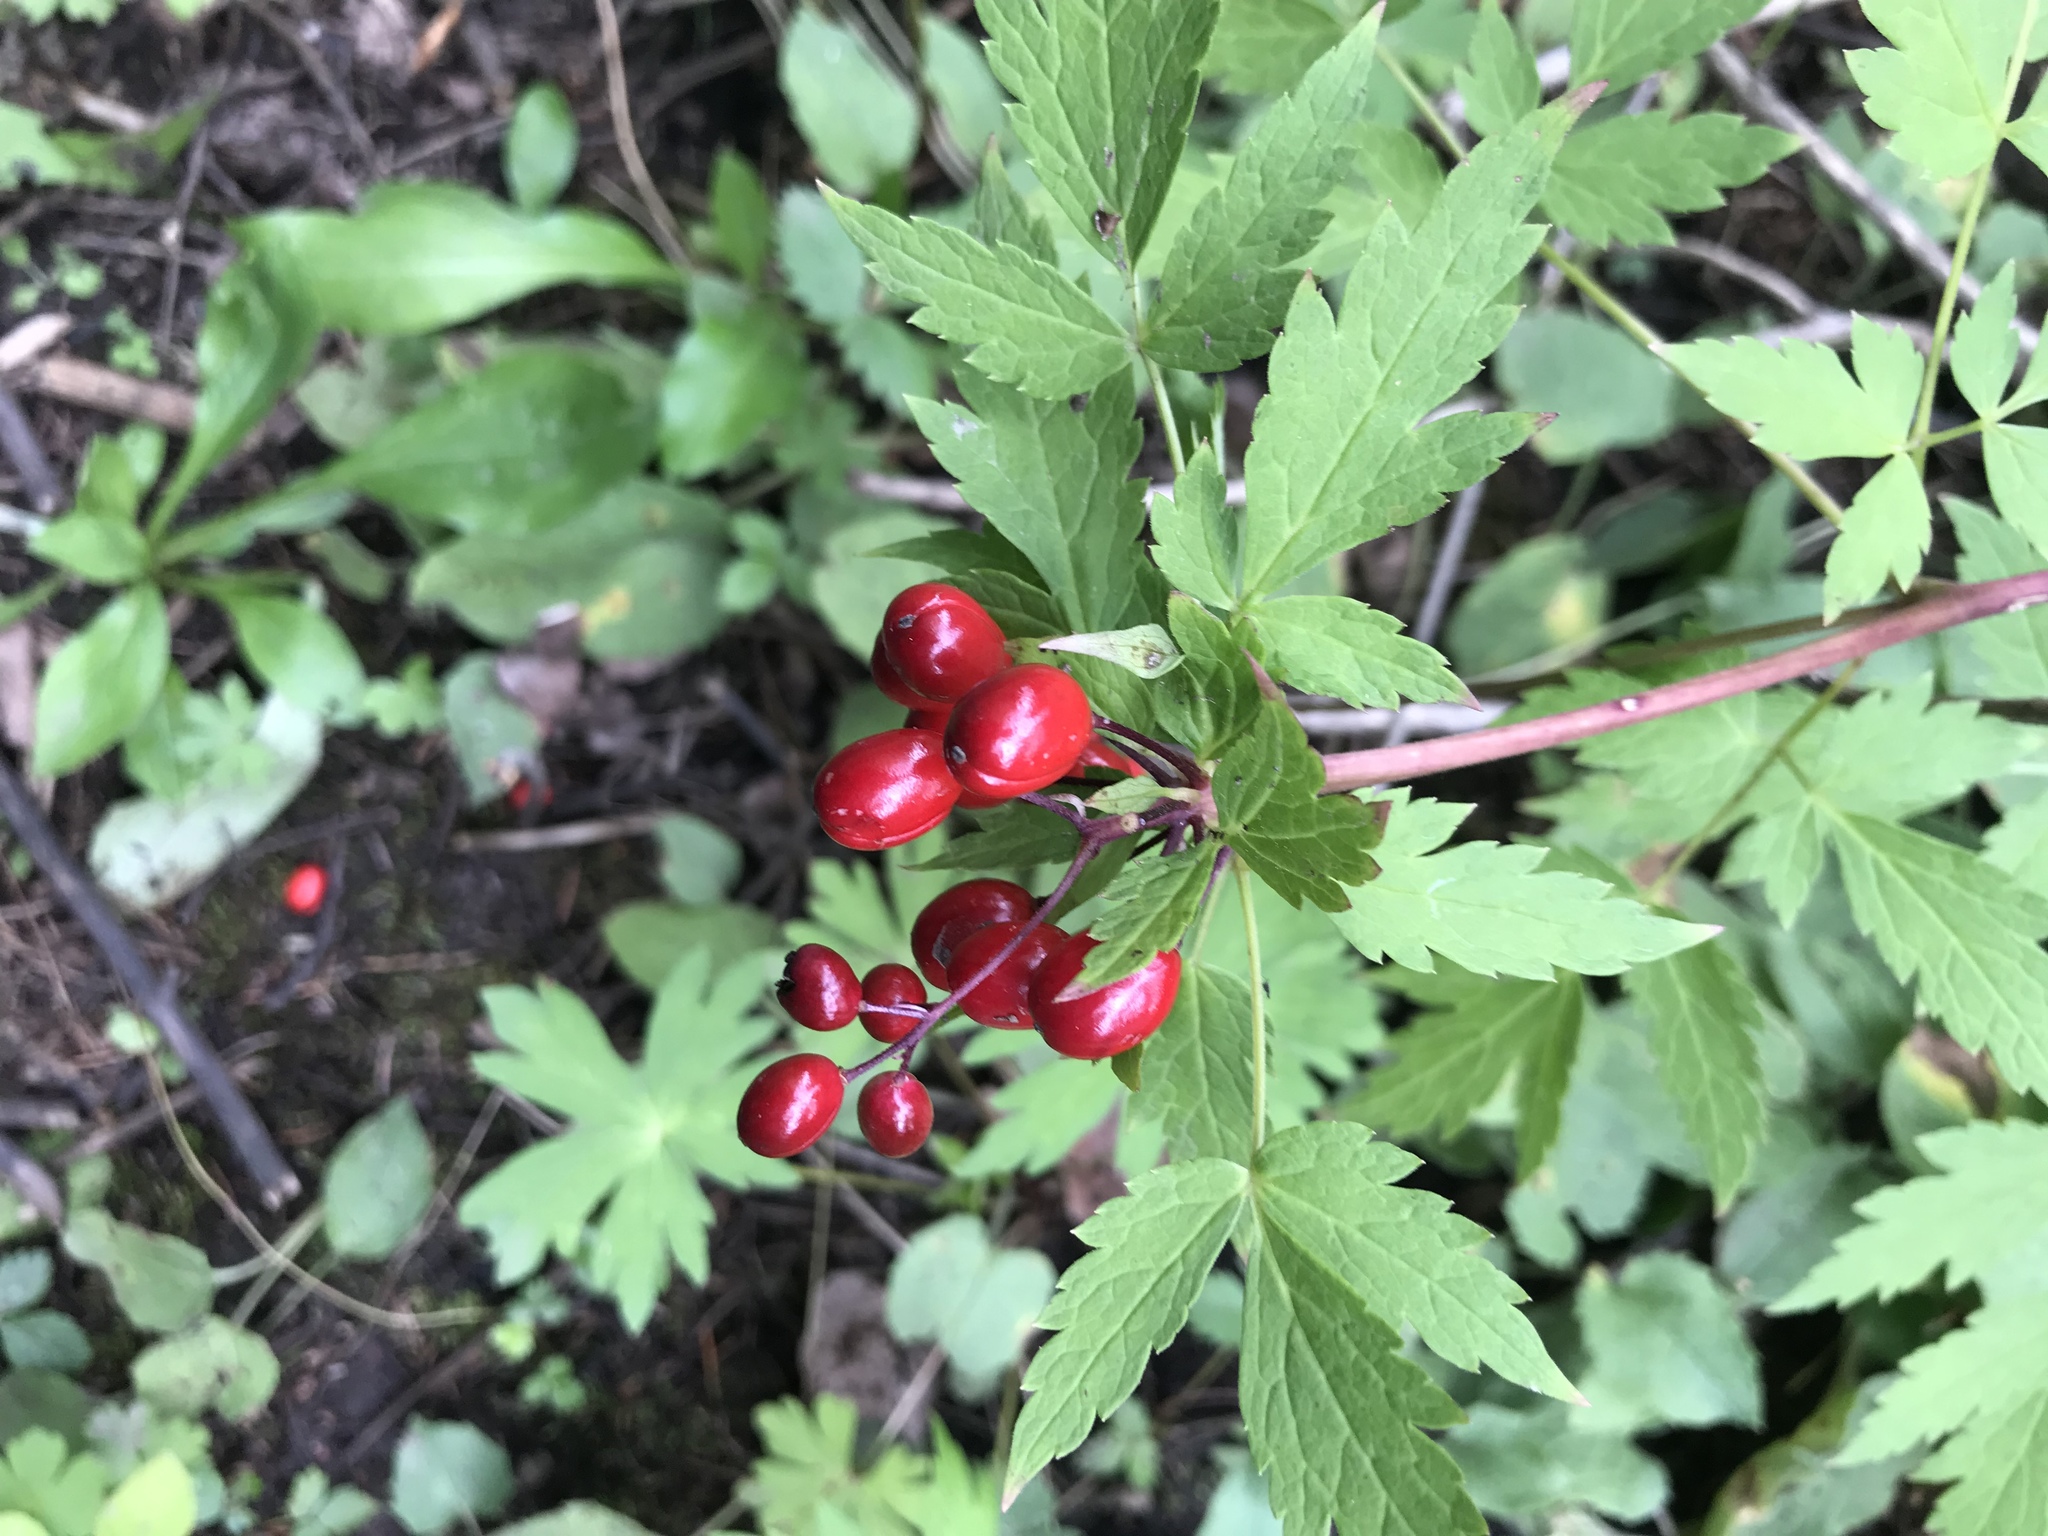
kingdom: Plantae
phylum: Tracheophyta
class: Magnoliopsida
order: Ranunculales
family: Ranunculaceae
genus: Actaea
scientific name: Actaea rubra
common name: Red baneberry
